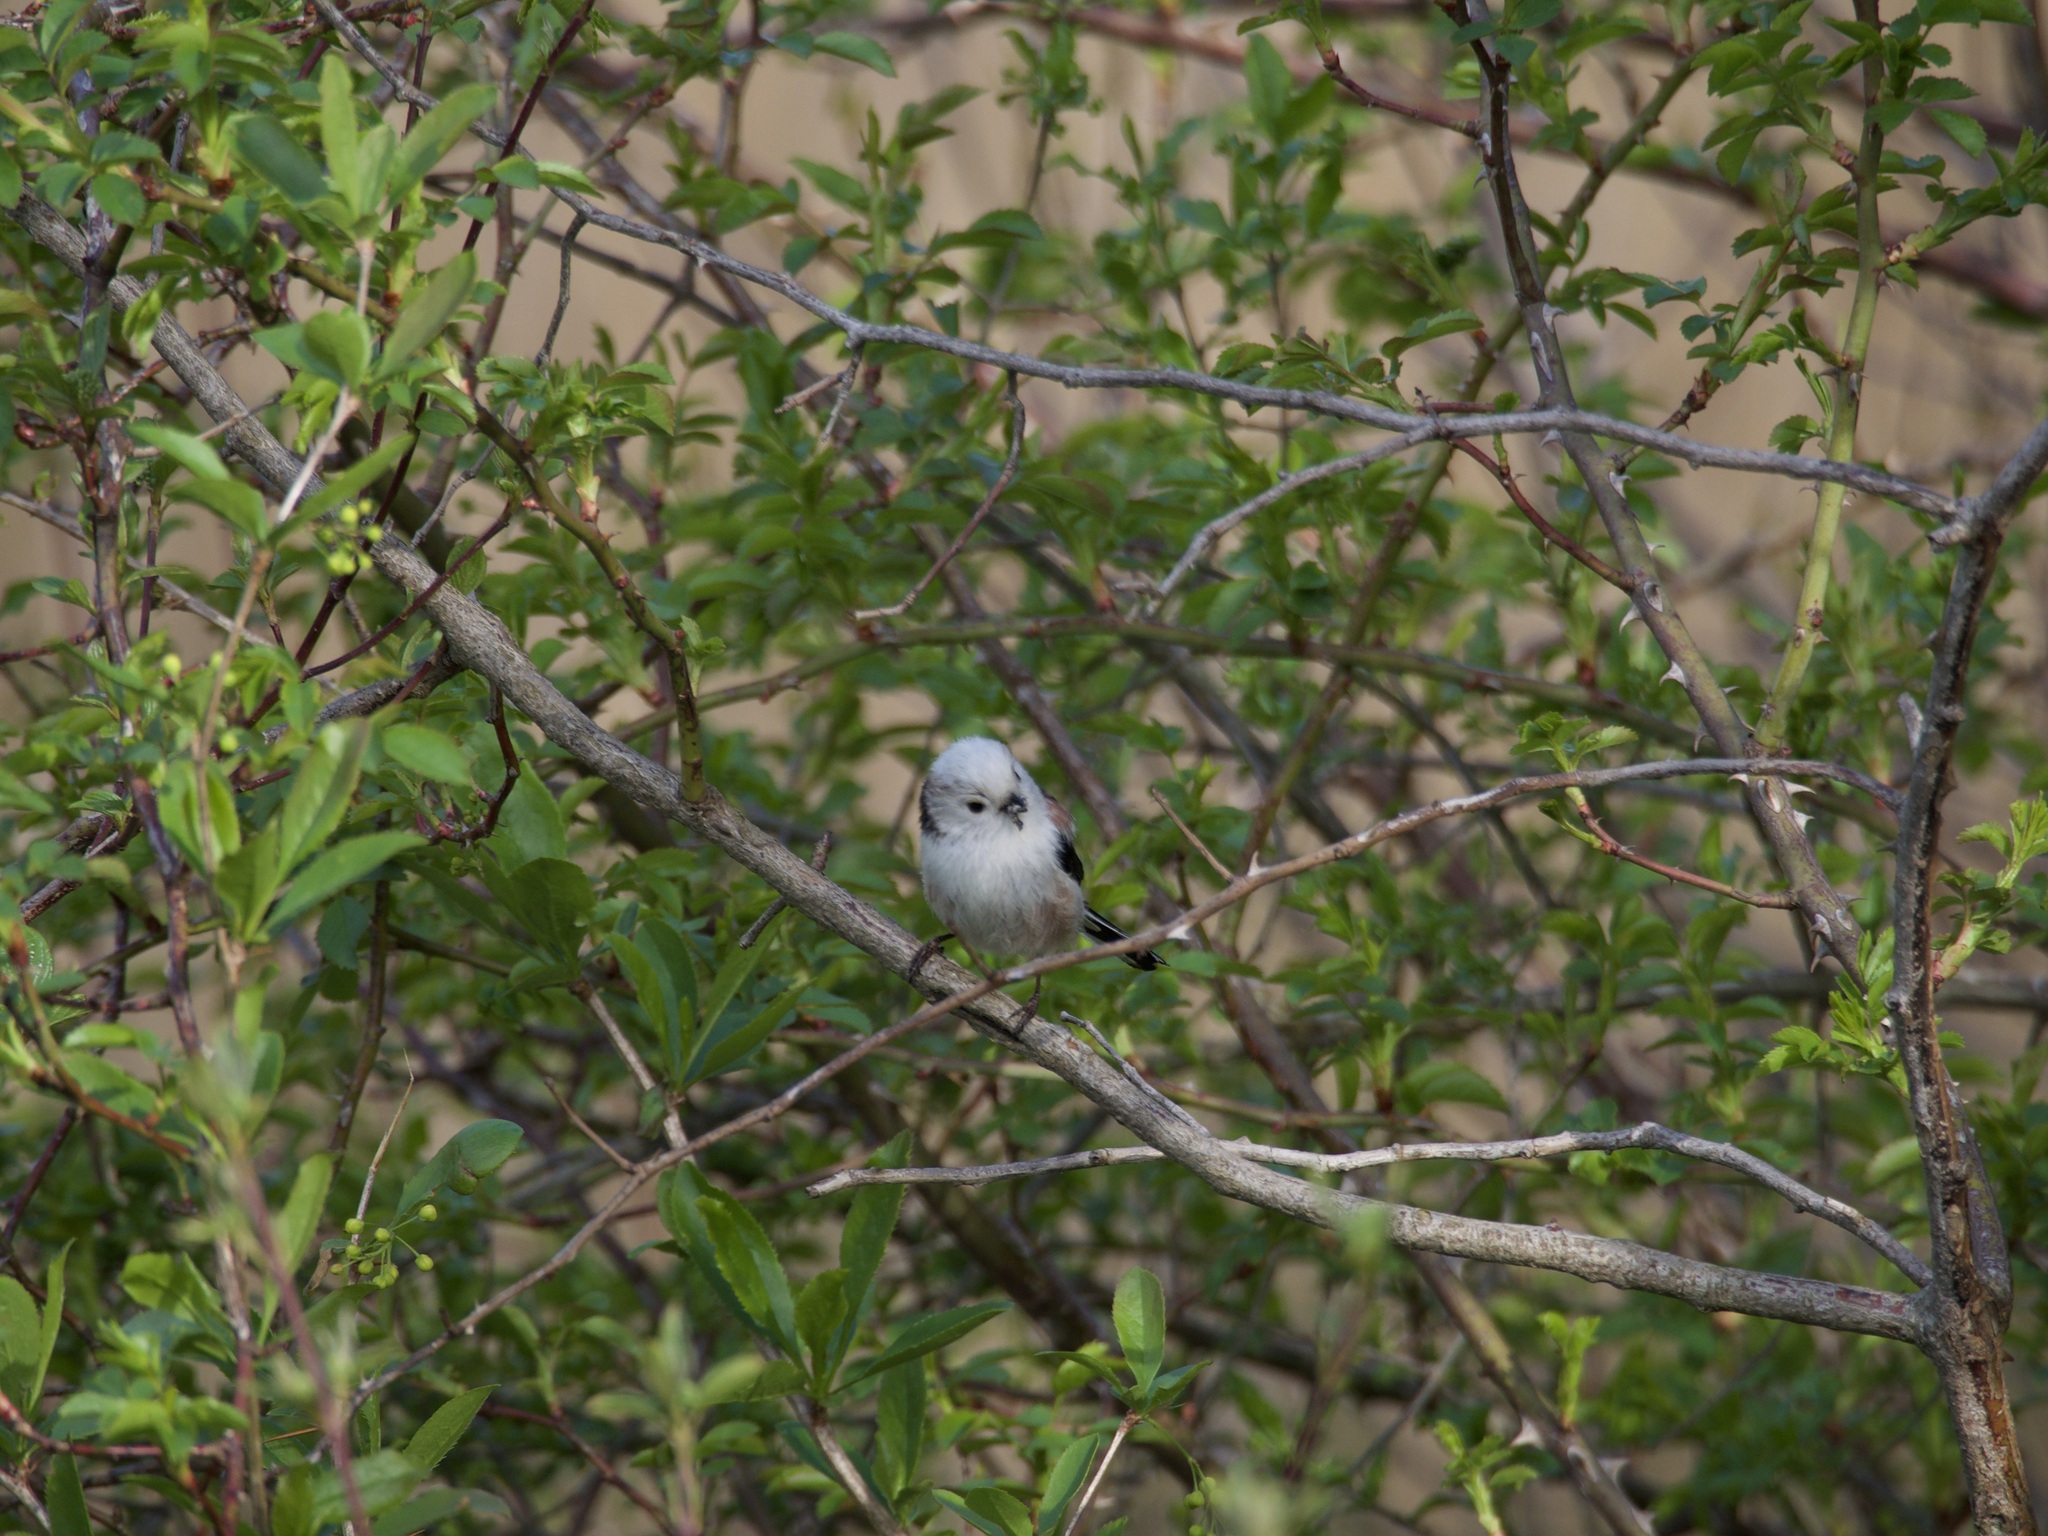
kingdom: Animalia
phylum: Chordata
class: Aves
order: Passeriformes
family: Aegithalidae
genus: Aegithalos
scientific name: Aegithalos caudatus
